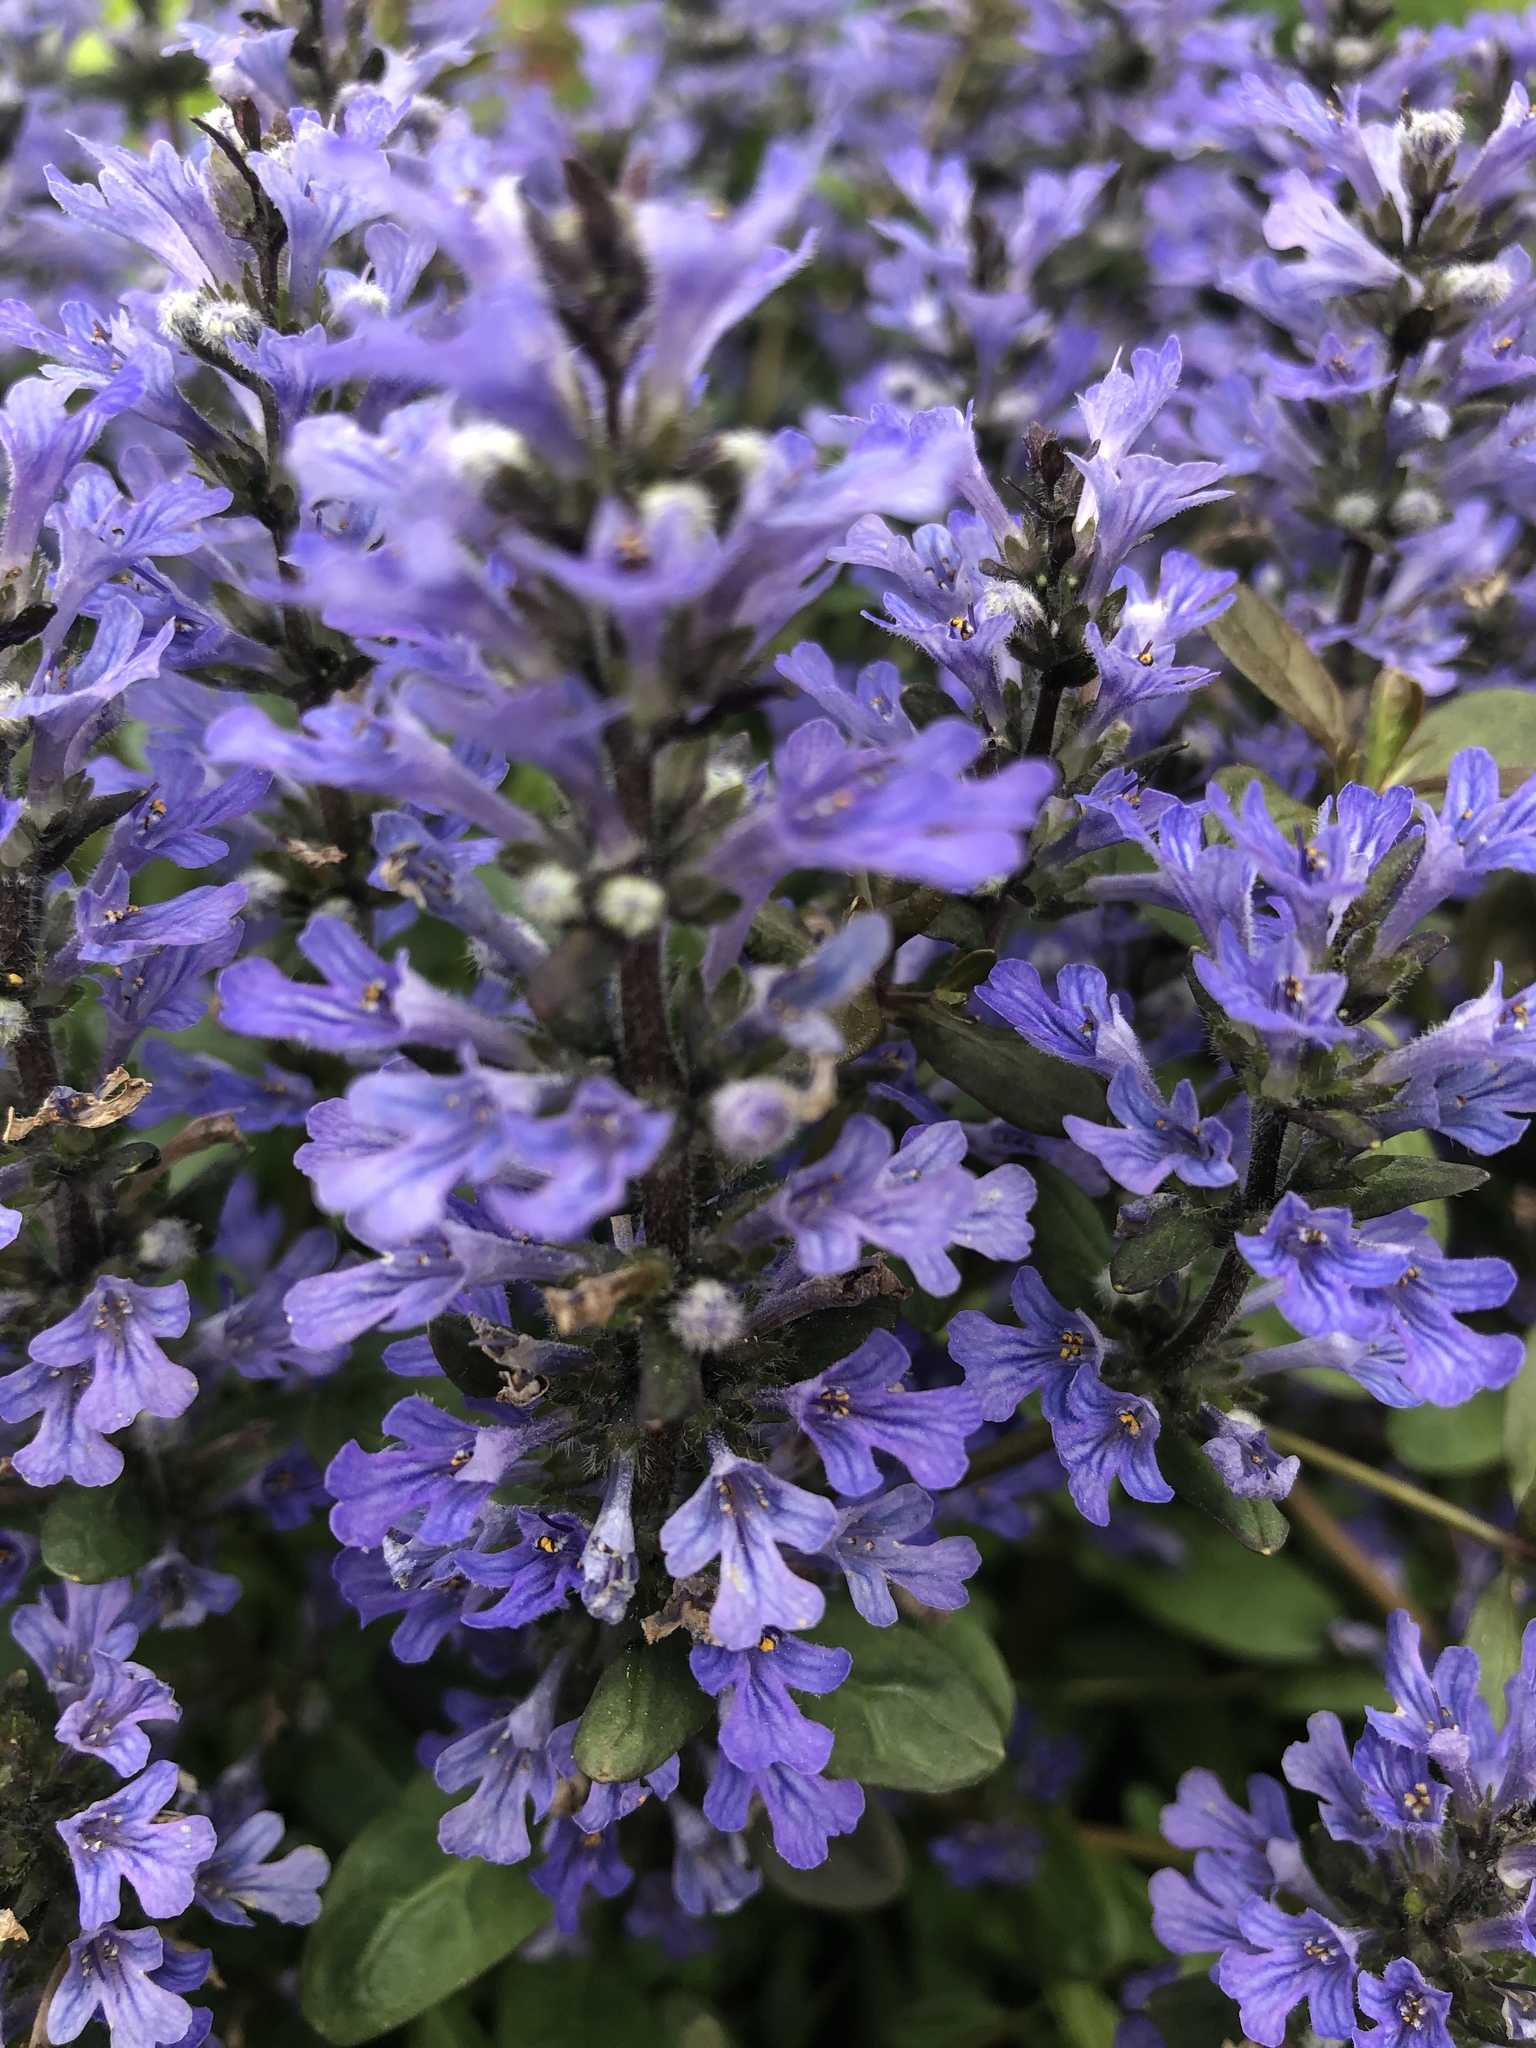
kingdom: Plantae
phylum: Tracheophyta
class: Magnoliopsida
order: Lamiales
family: Lamiaceae
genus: Ajuga
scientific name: Ajuga reptans
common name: Bugle
